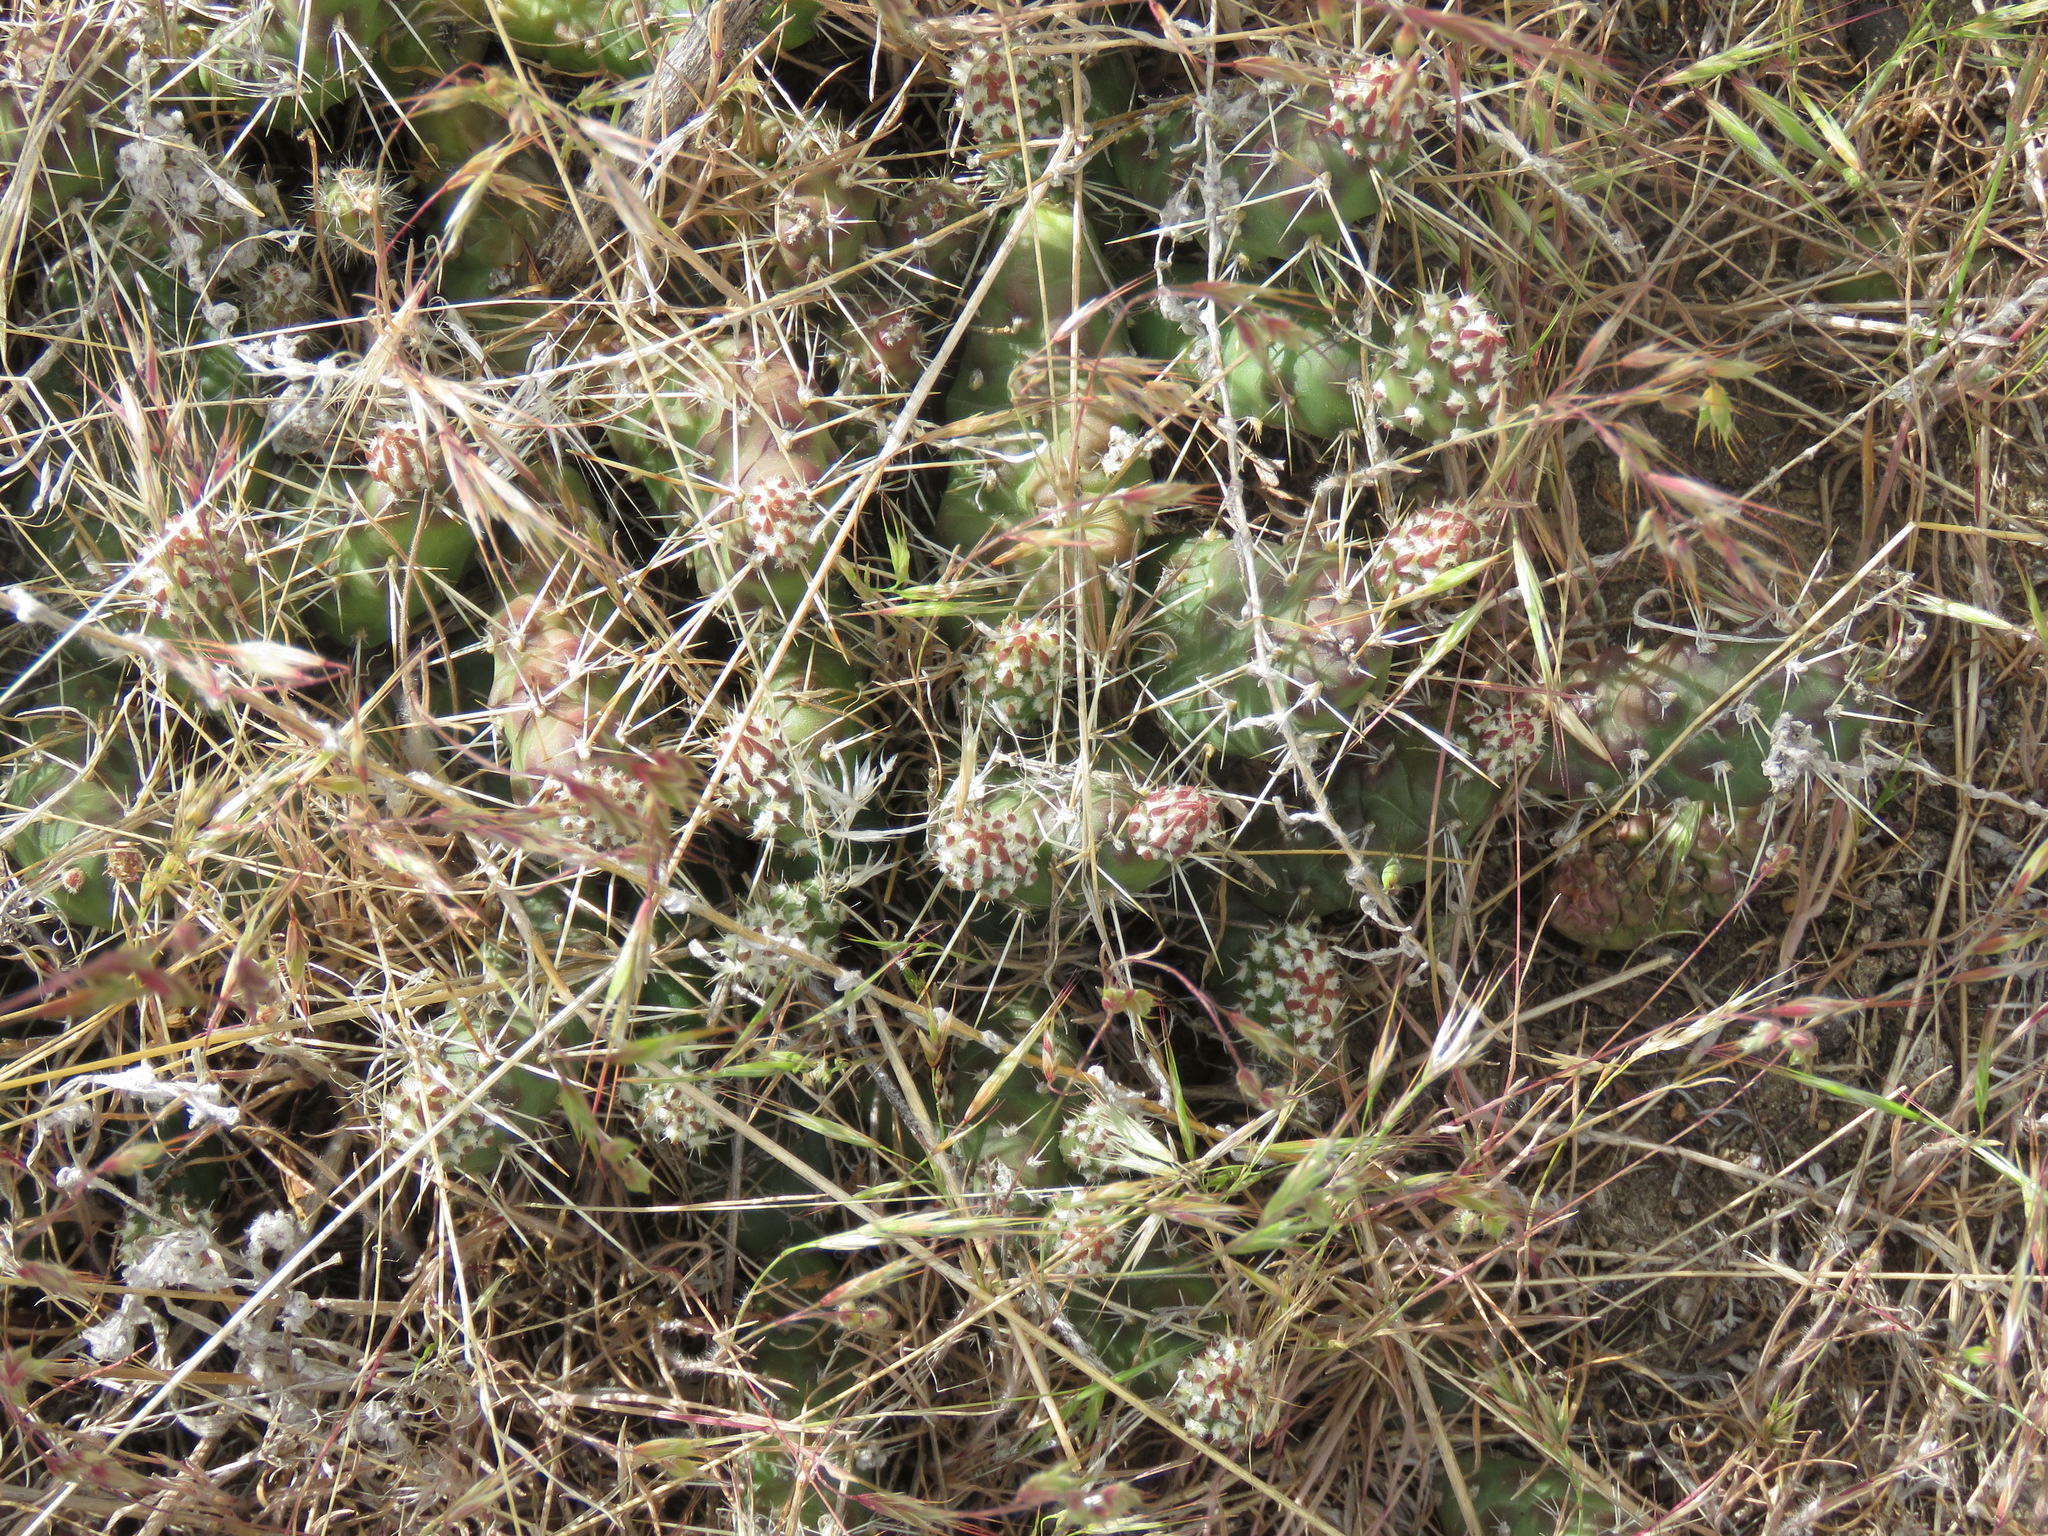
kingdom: Plantae
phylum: Tracheophyta
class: Magnoliopsida
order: Caryophyllales
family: Cactaceae
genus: Opuntia
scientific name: Opuntia fragilis
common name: Brittle cactus
